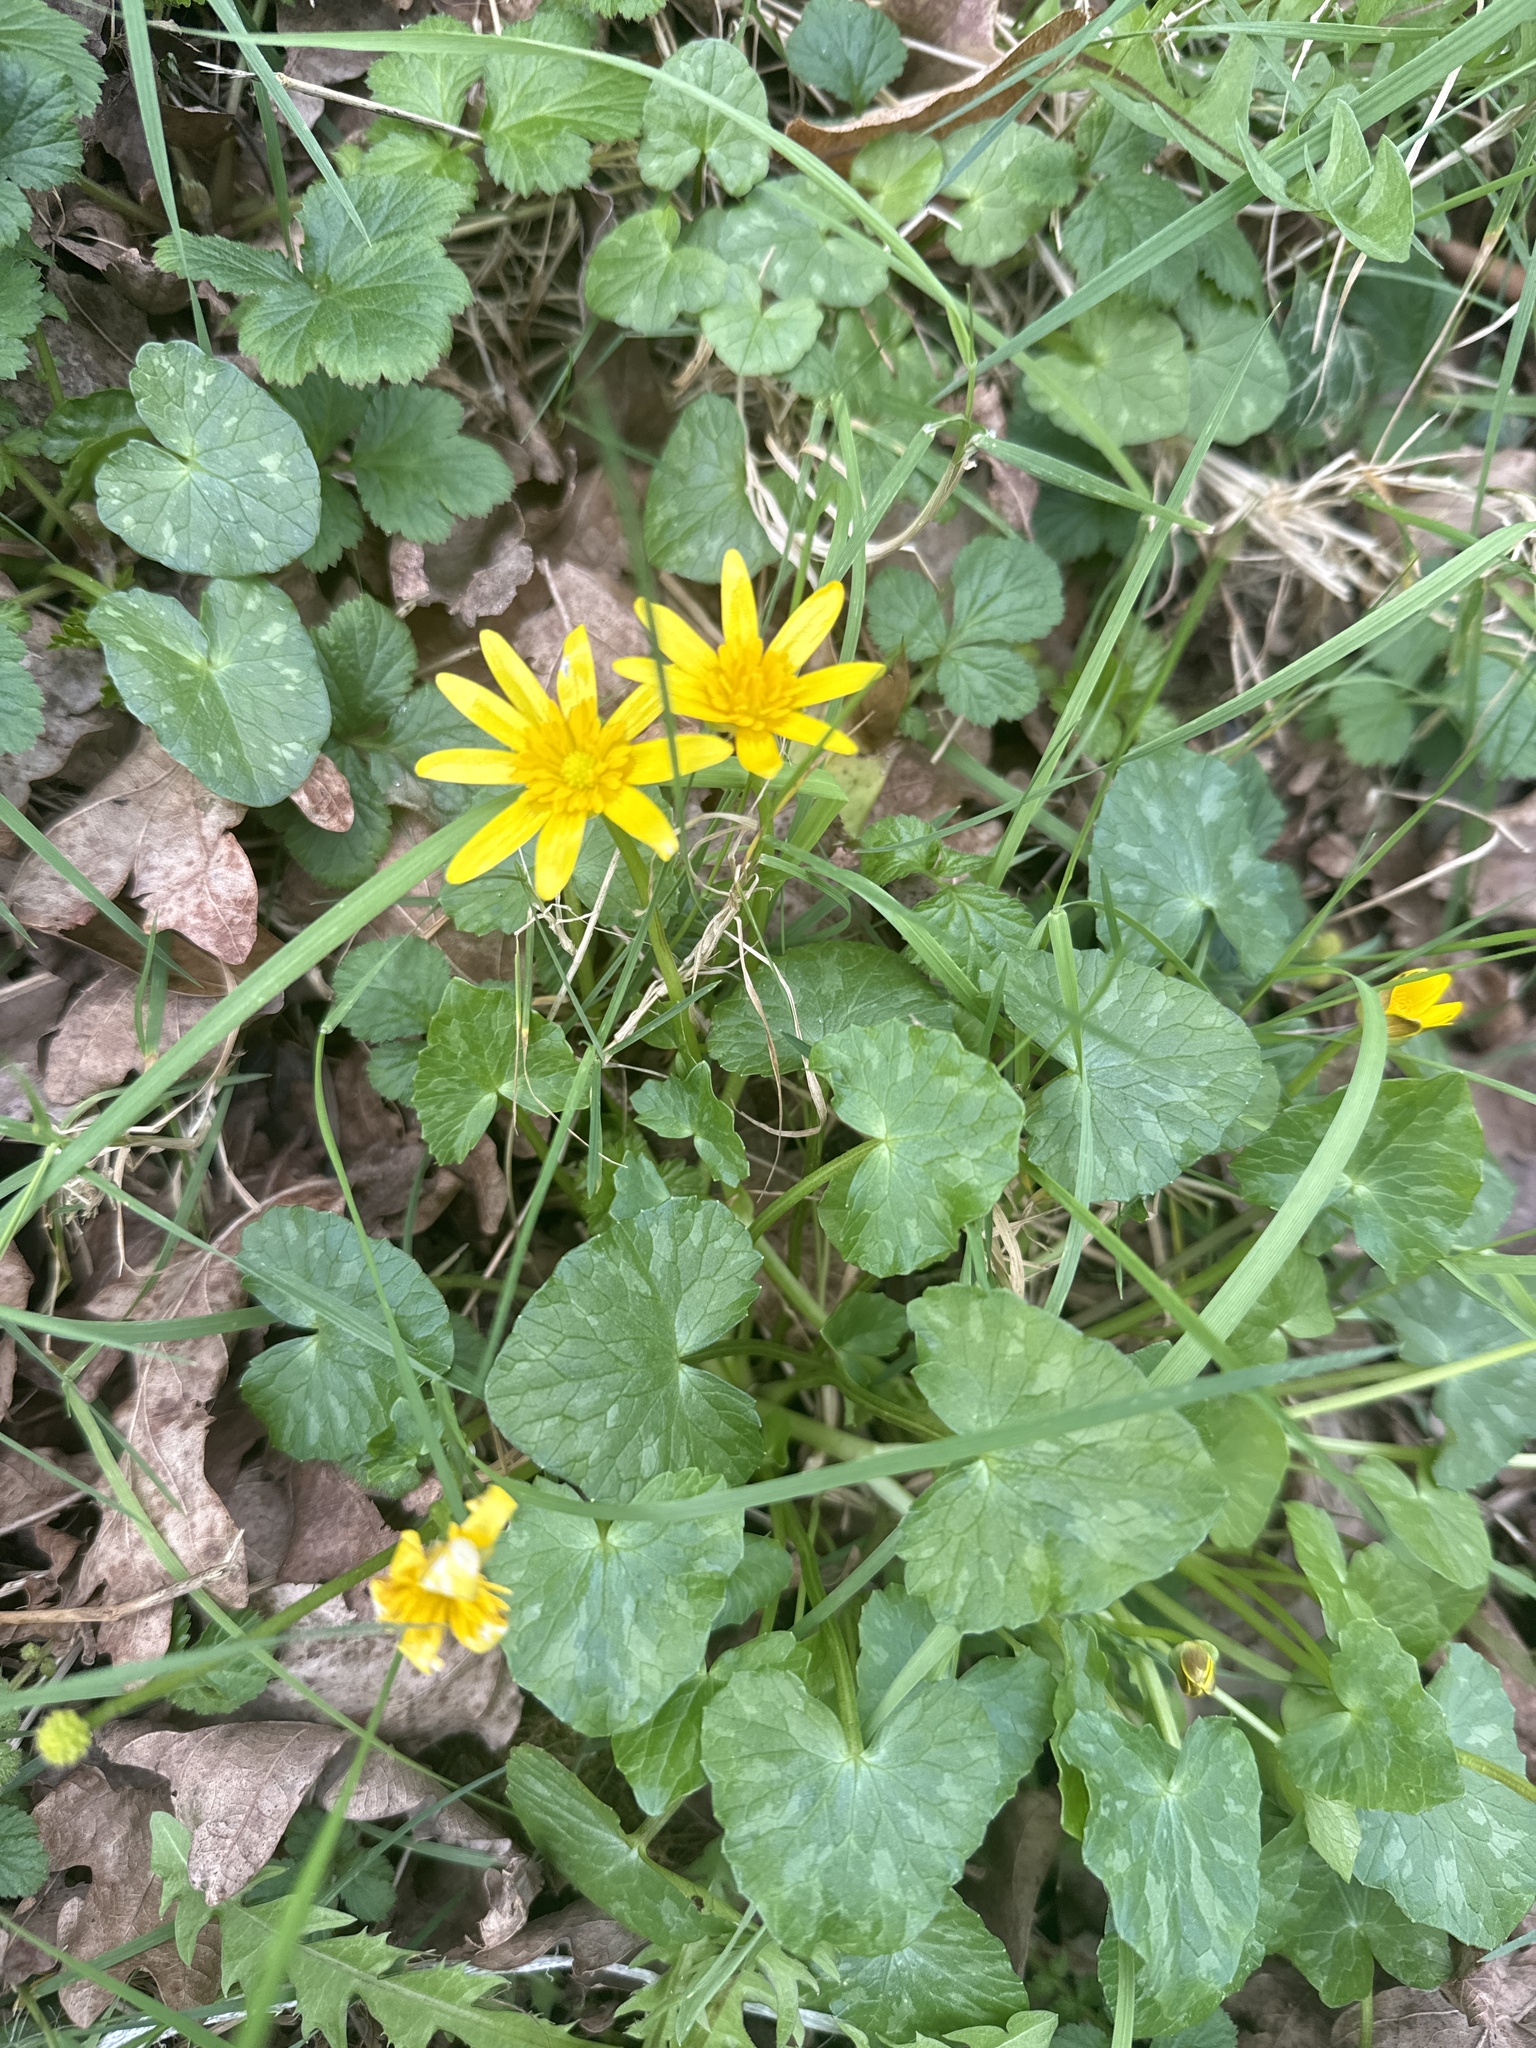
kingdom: Plantae
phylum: Tracheophyta
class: Magnoliopsida
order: Ranunculales
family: Ranunculaceae
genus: Ficaria
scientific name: Ficaria verna
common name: Lesser celandine
